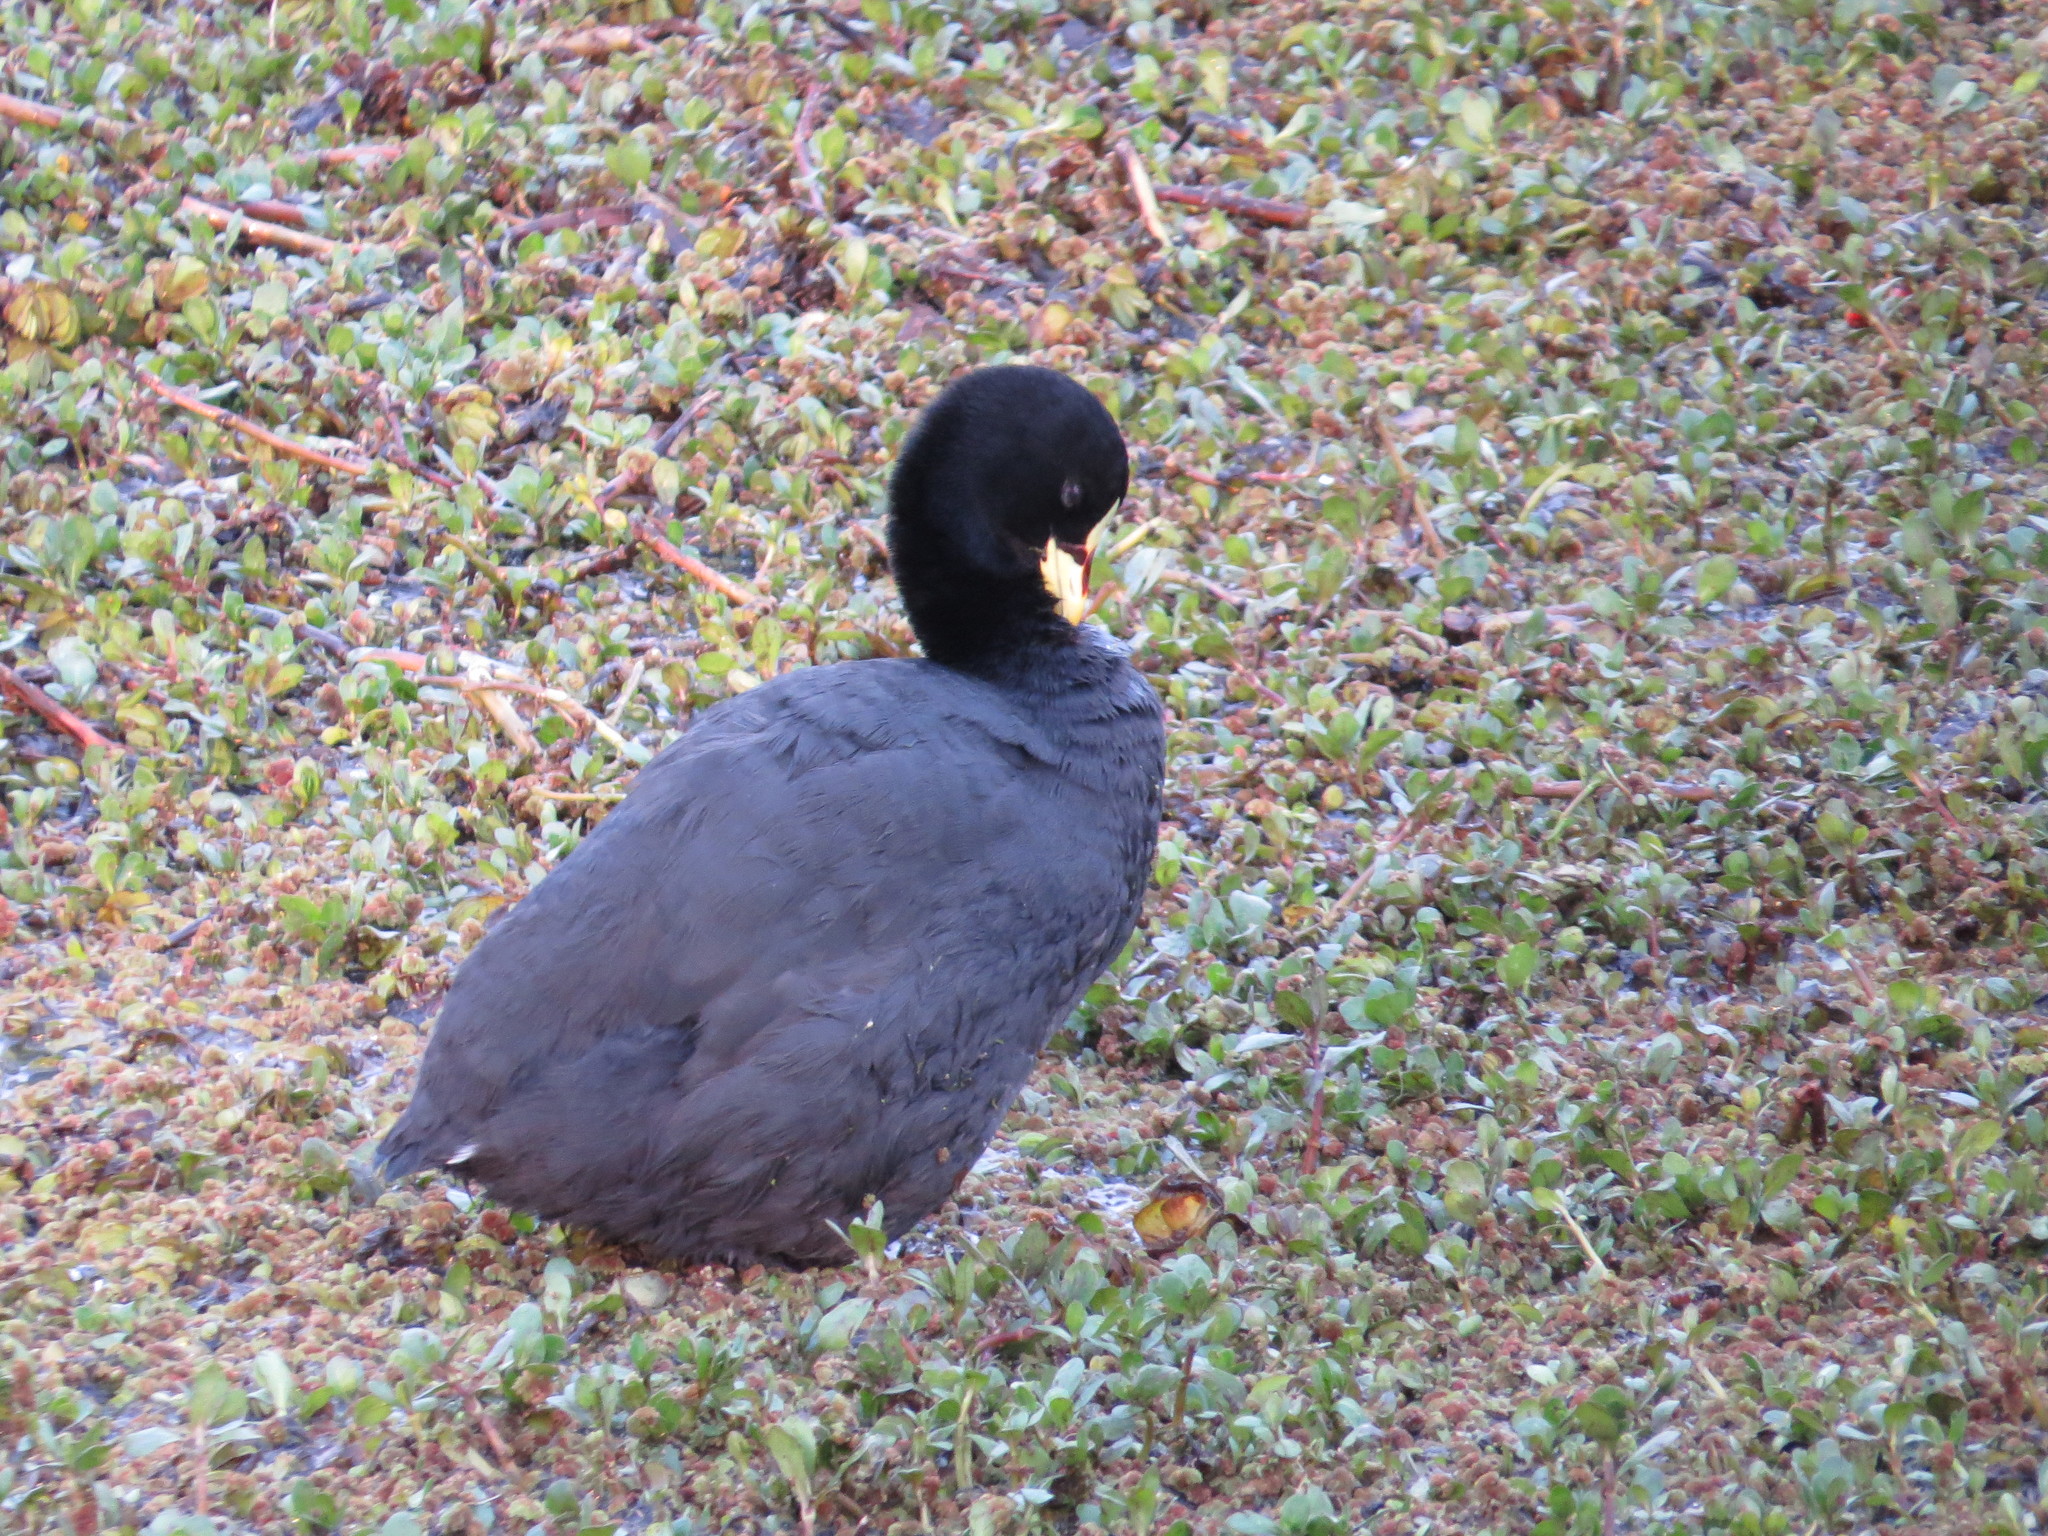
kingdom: Animalia
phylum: Chordata
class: Aves
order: Gruiformes
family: Rallidae
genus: Fulica
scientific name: Fulica armillata
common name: Red-gartered coot
